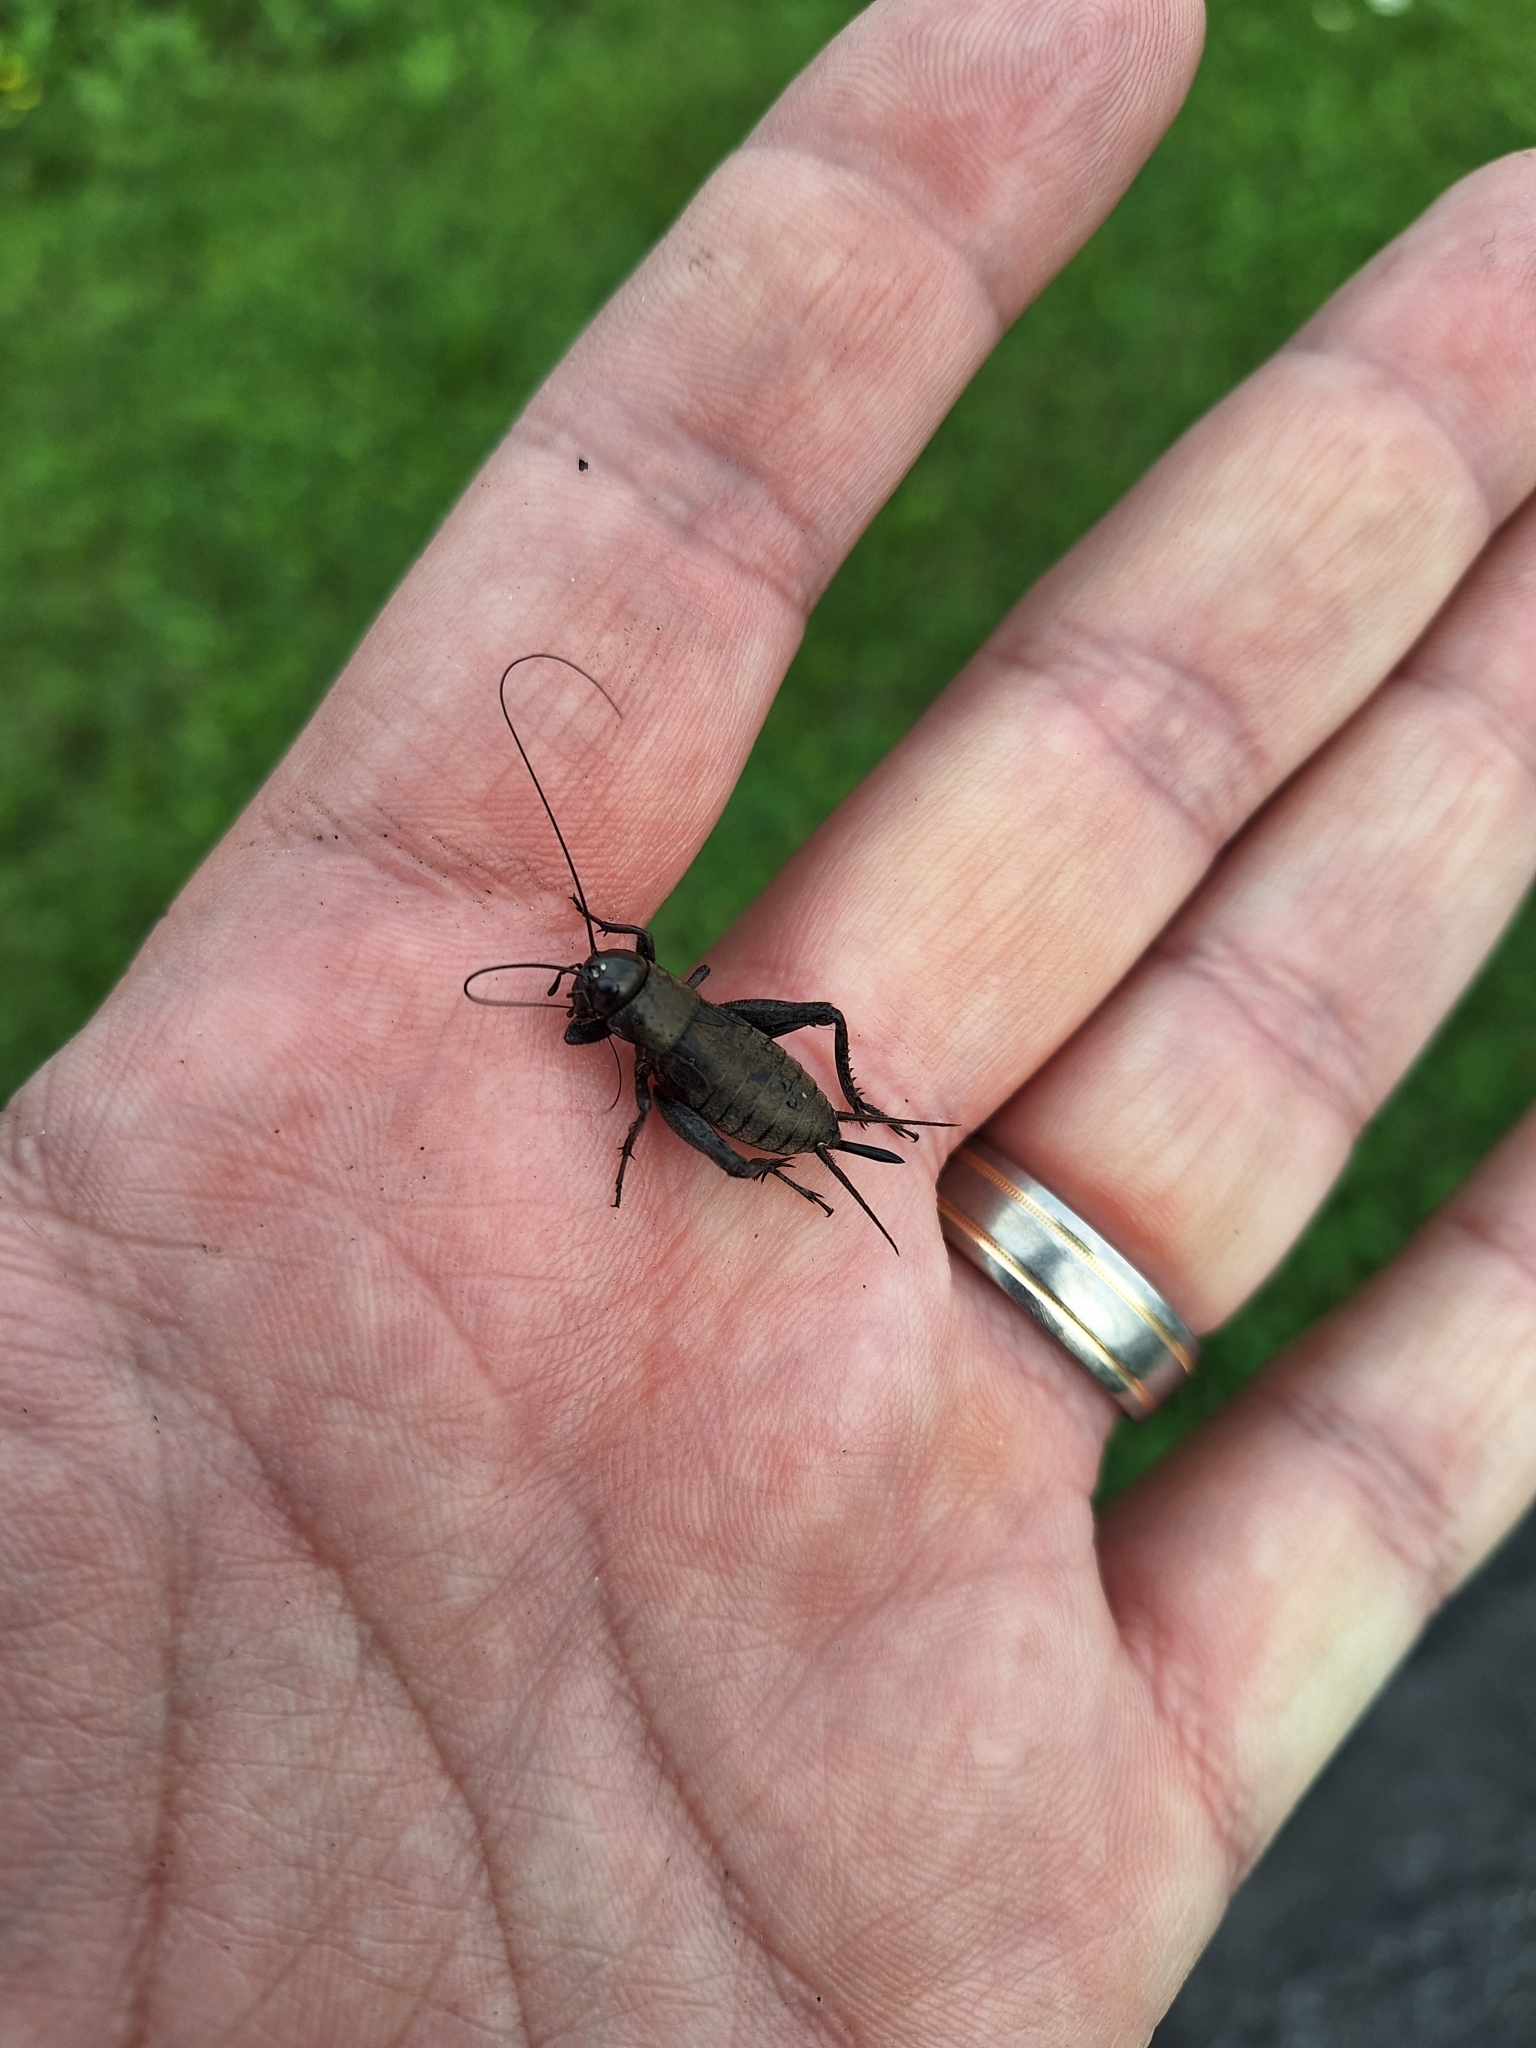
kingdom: Animalia
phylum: Arthropoda
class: Insecta
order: Orthoptera
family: Gryllidae
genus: Gryllus
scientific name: Gryllus pennsylvanicus
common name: Fall field cricket
